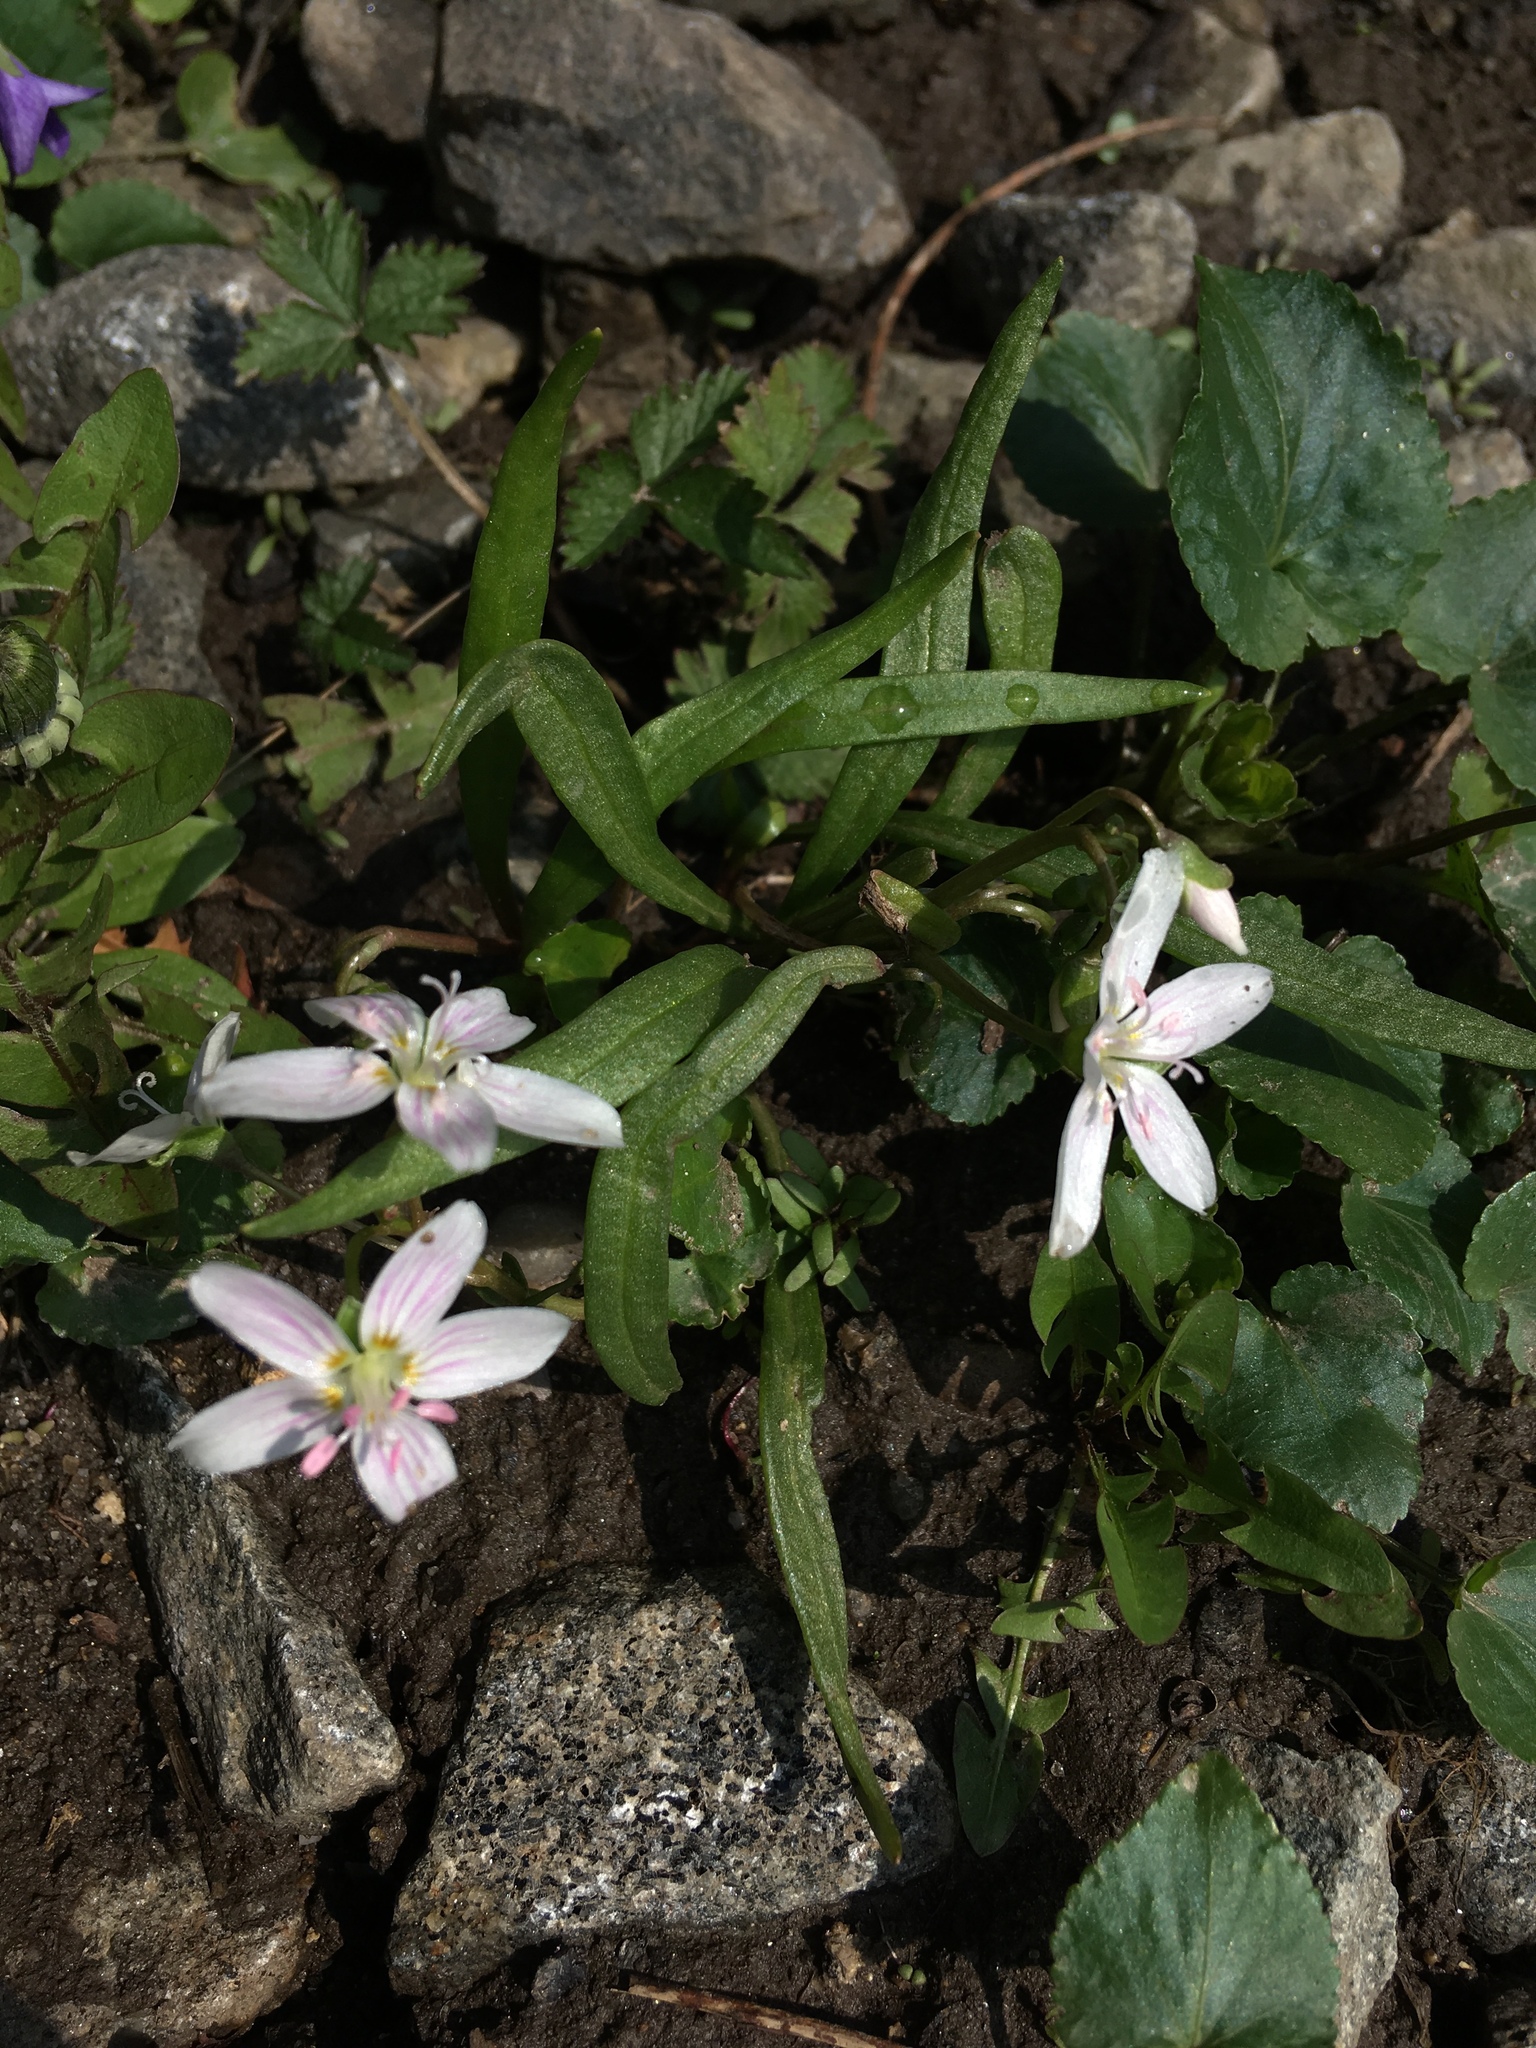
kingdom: Plantae
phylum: Tracheophyta
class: Magnoliopsida
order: Caryophyllales
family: Montiaceae
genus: Claytonia
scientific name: Claytonia virginica
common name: Virginia springbeauty
